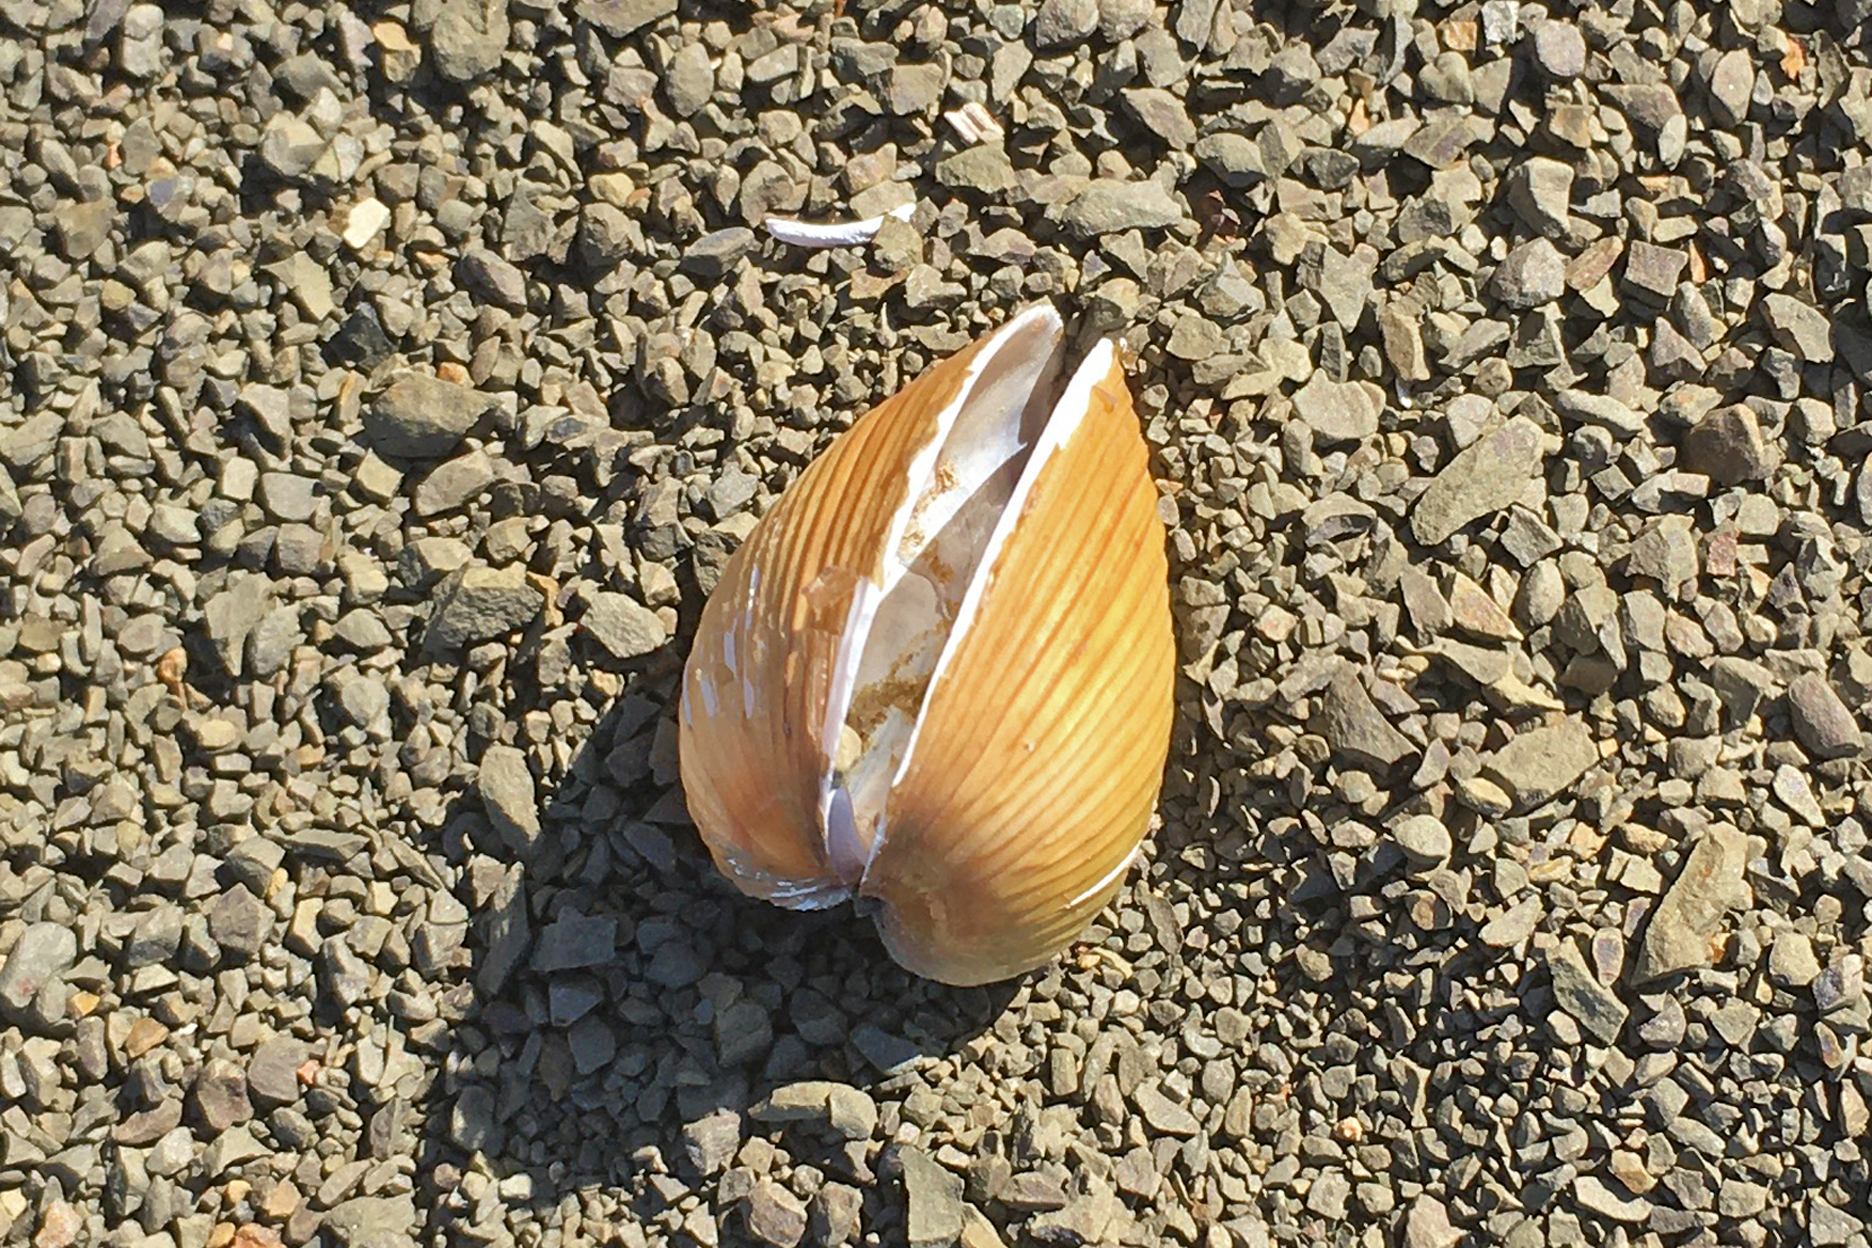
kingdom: Animalia
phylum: Mollusca
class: Bivalvia
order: Venerida
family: Cyrenidae
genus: Corbicula
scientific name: Corbicula fluminea
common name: Asian clam
